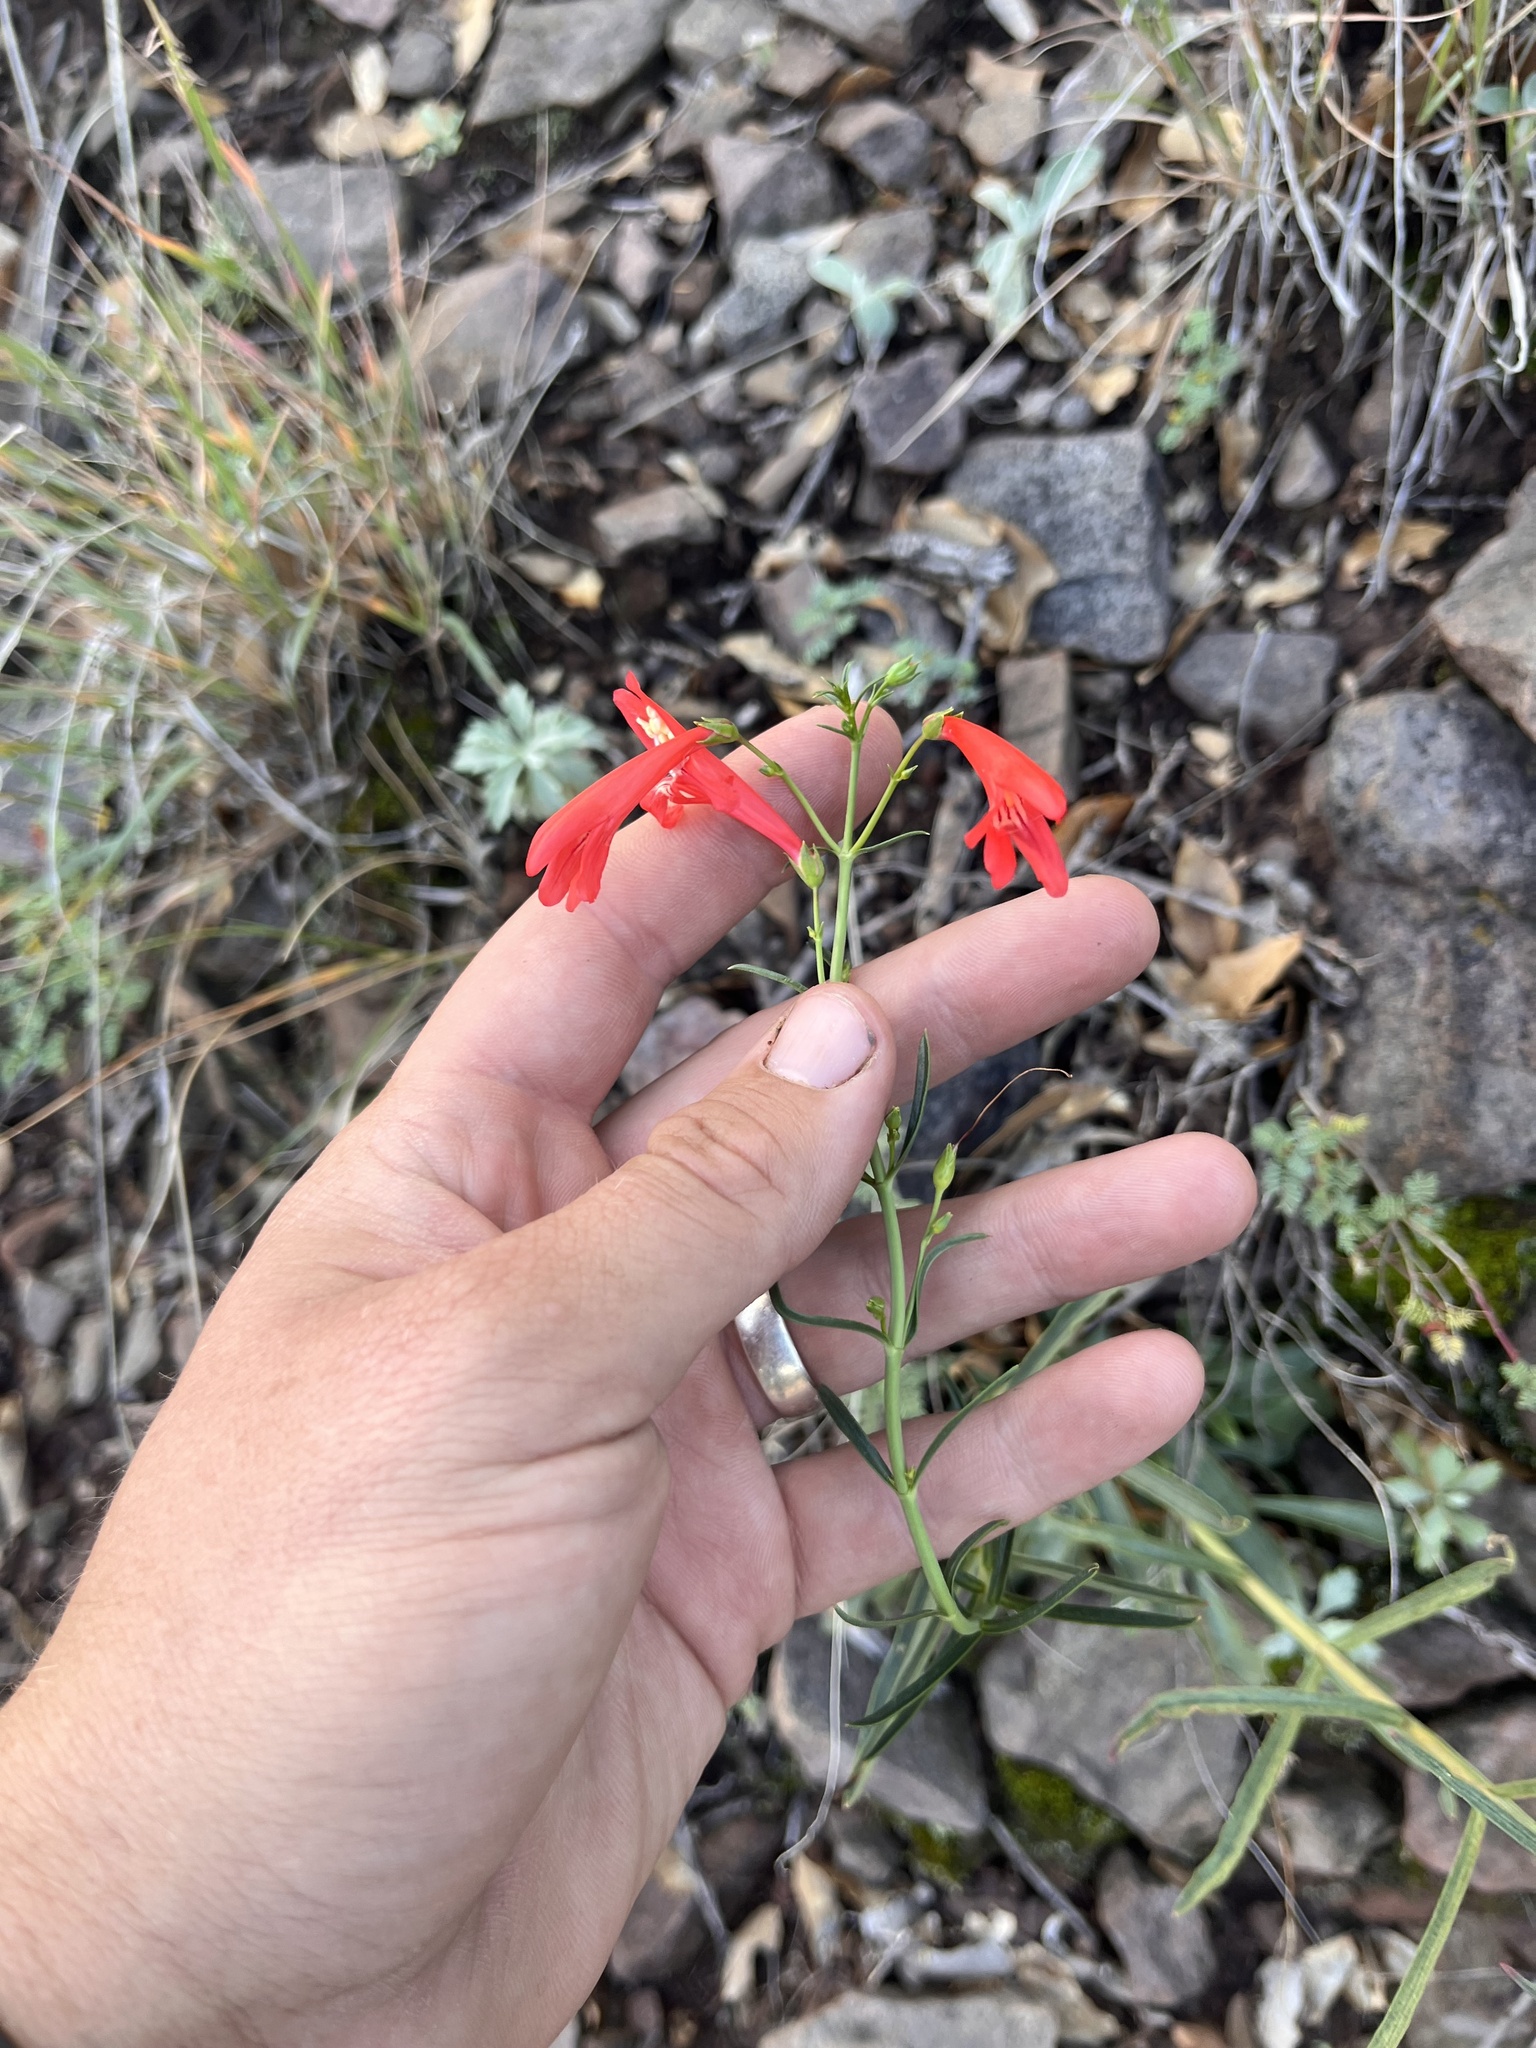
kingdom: Plantae
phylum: Tracheophyta
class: Magnoliopsida
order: Lamiales
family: Plantaginaceae
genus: Penstemon
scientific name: Penstemon barbatus
